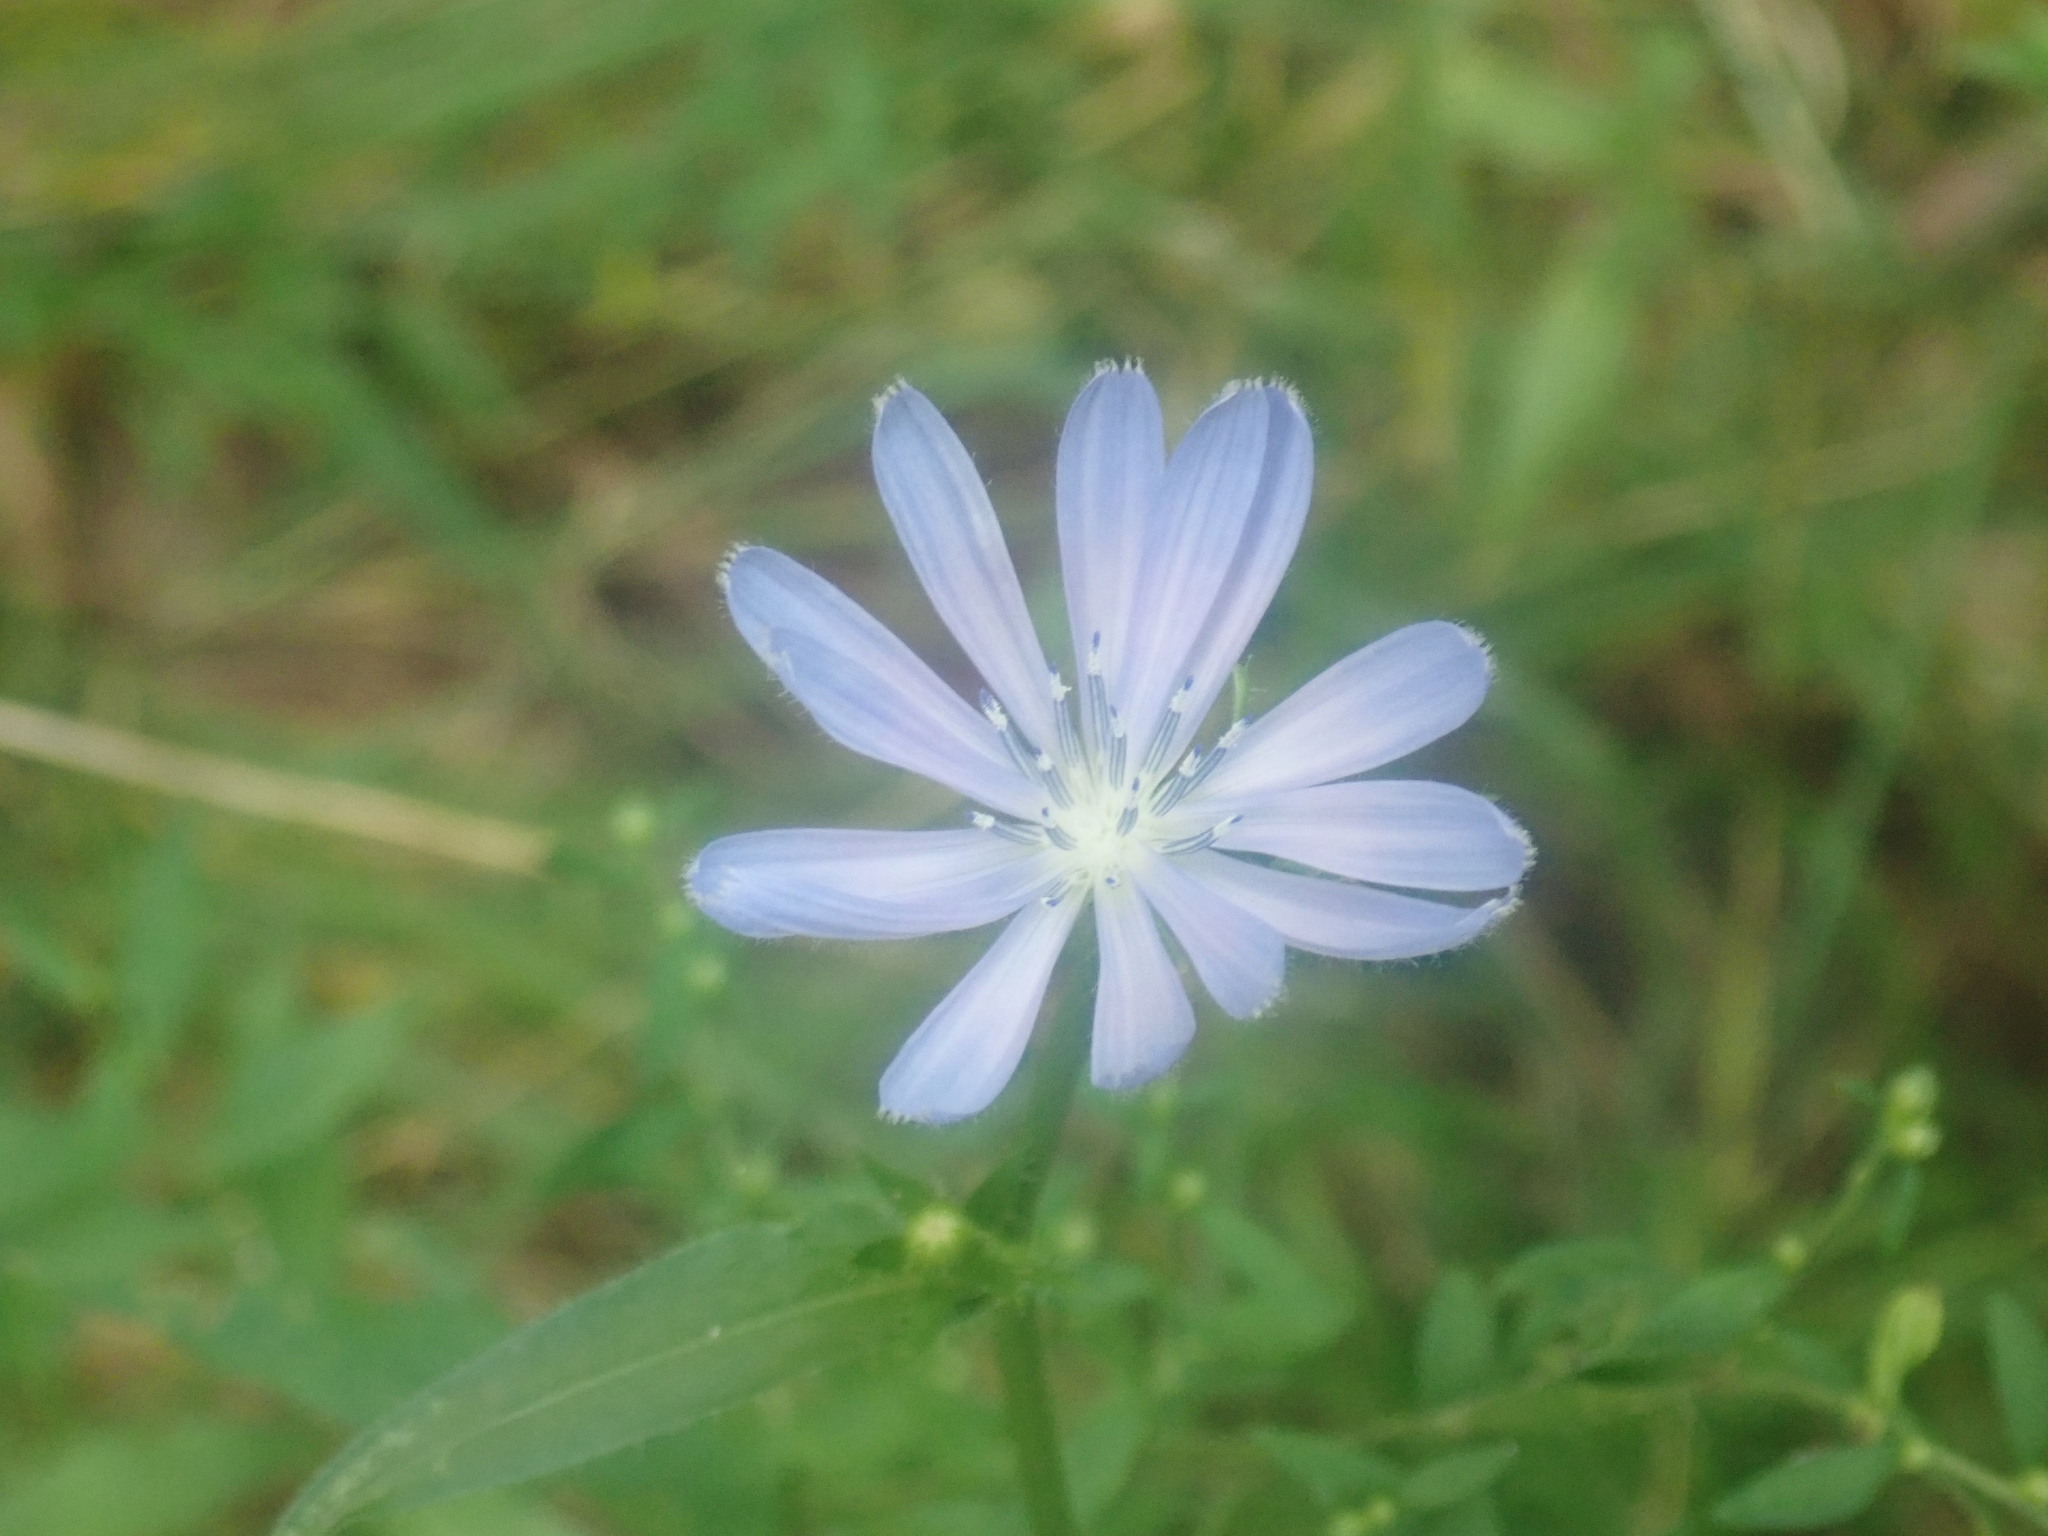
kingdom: Plantae
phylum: Tracheophyta
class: Magnoliopsida
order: Asterales
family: Asteraceae
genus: Cichorium
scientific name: Cichorium intybus
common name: Chicory
